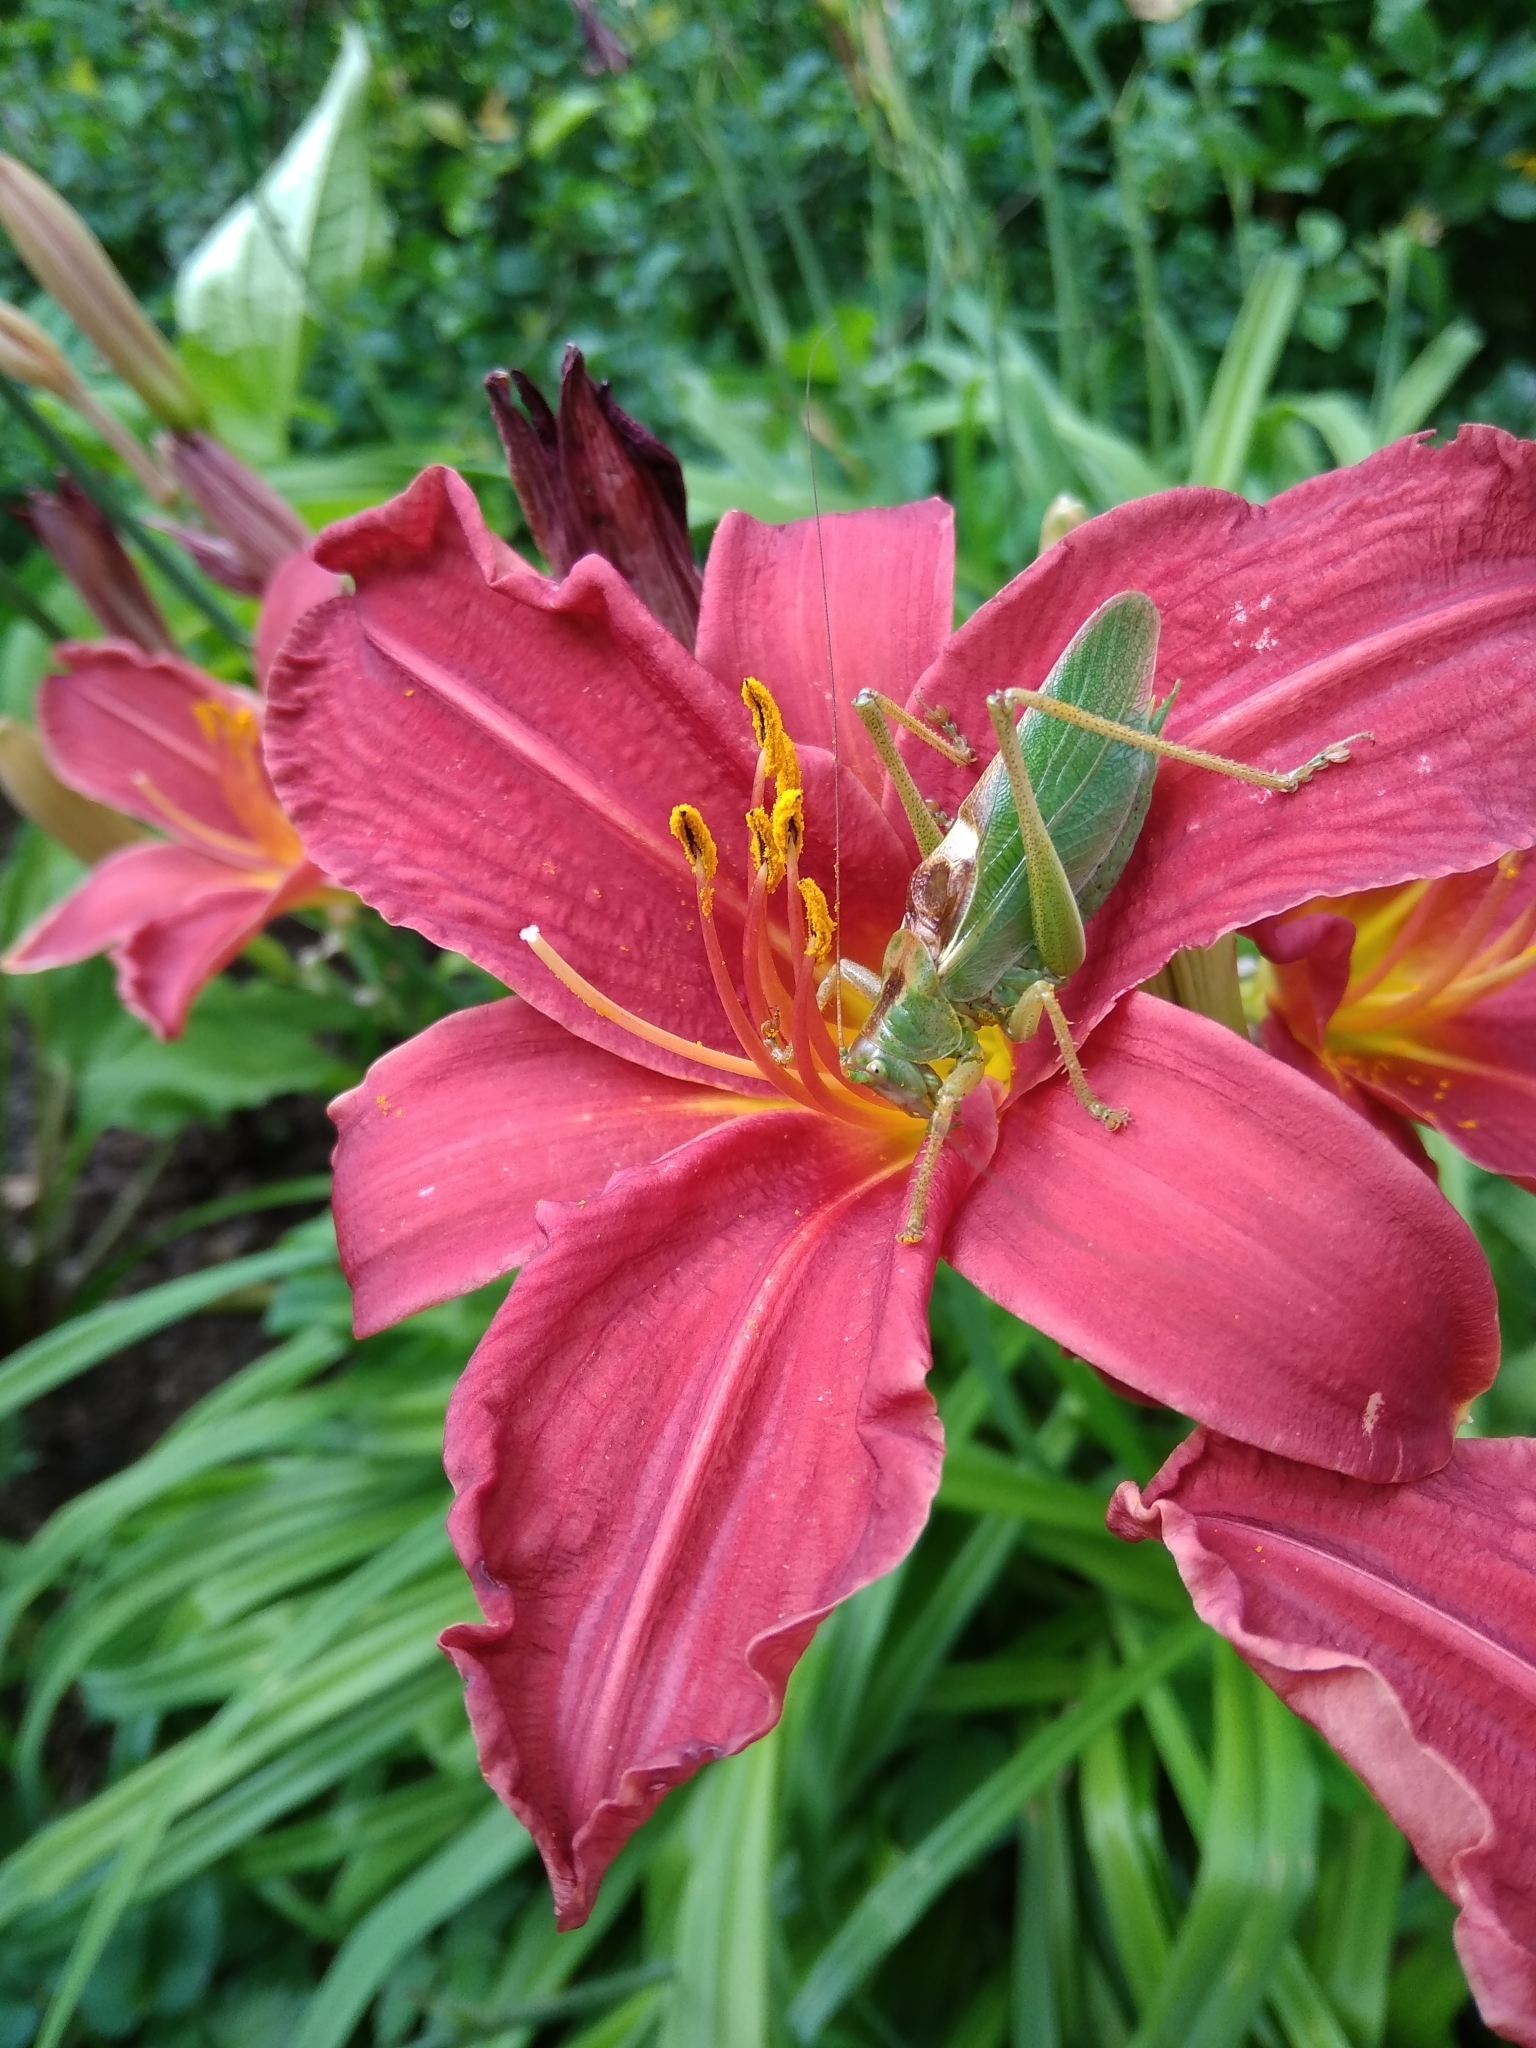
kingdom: Animalia
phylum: Arthropoda
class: Insecta
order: Orthoptera
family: Tettigoniidae
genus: Tettigonia
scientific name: Tettigonia cantans
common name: Upland green bush-cricket
